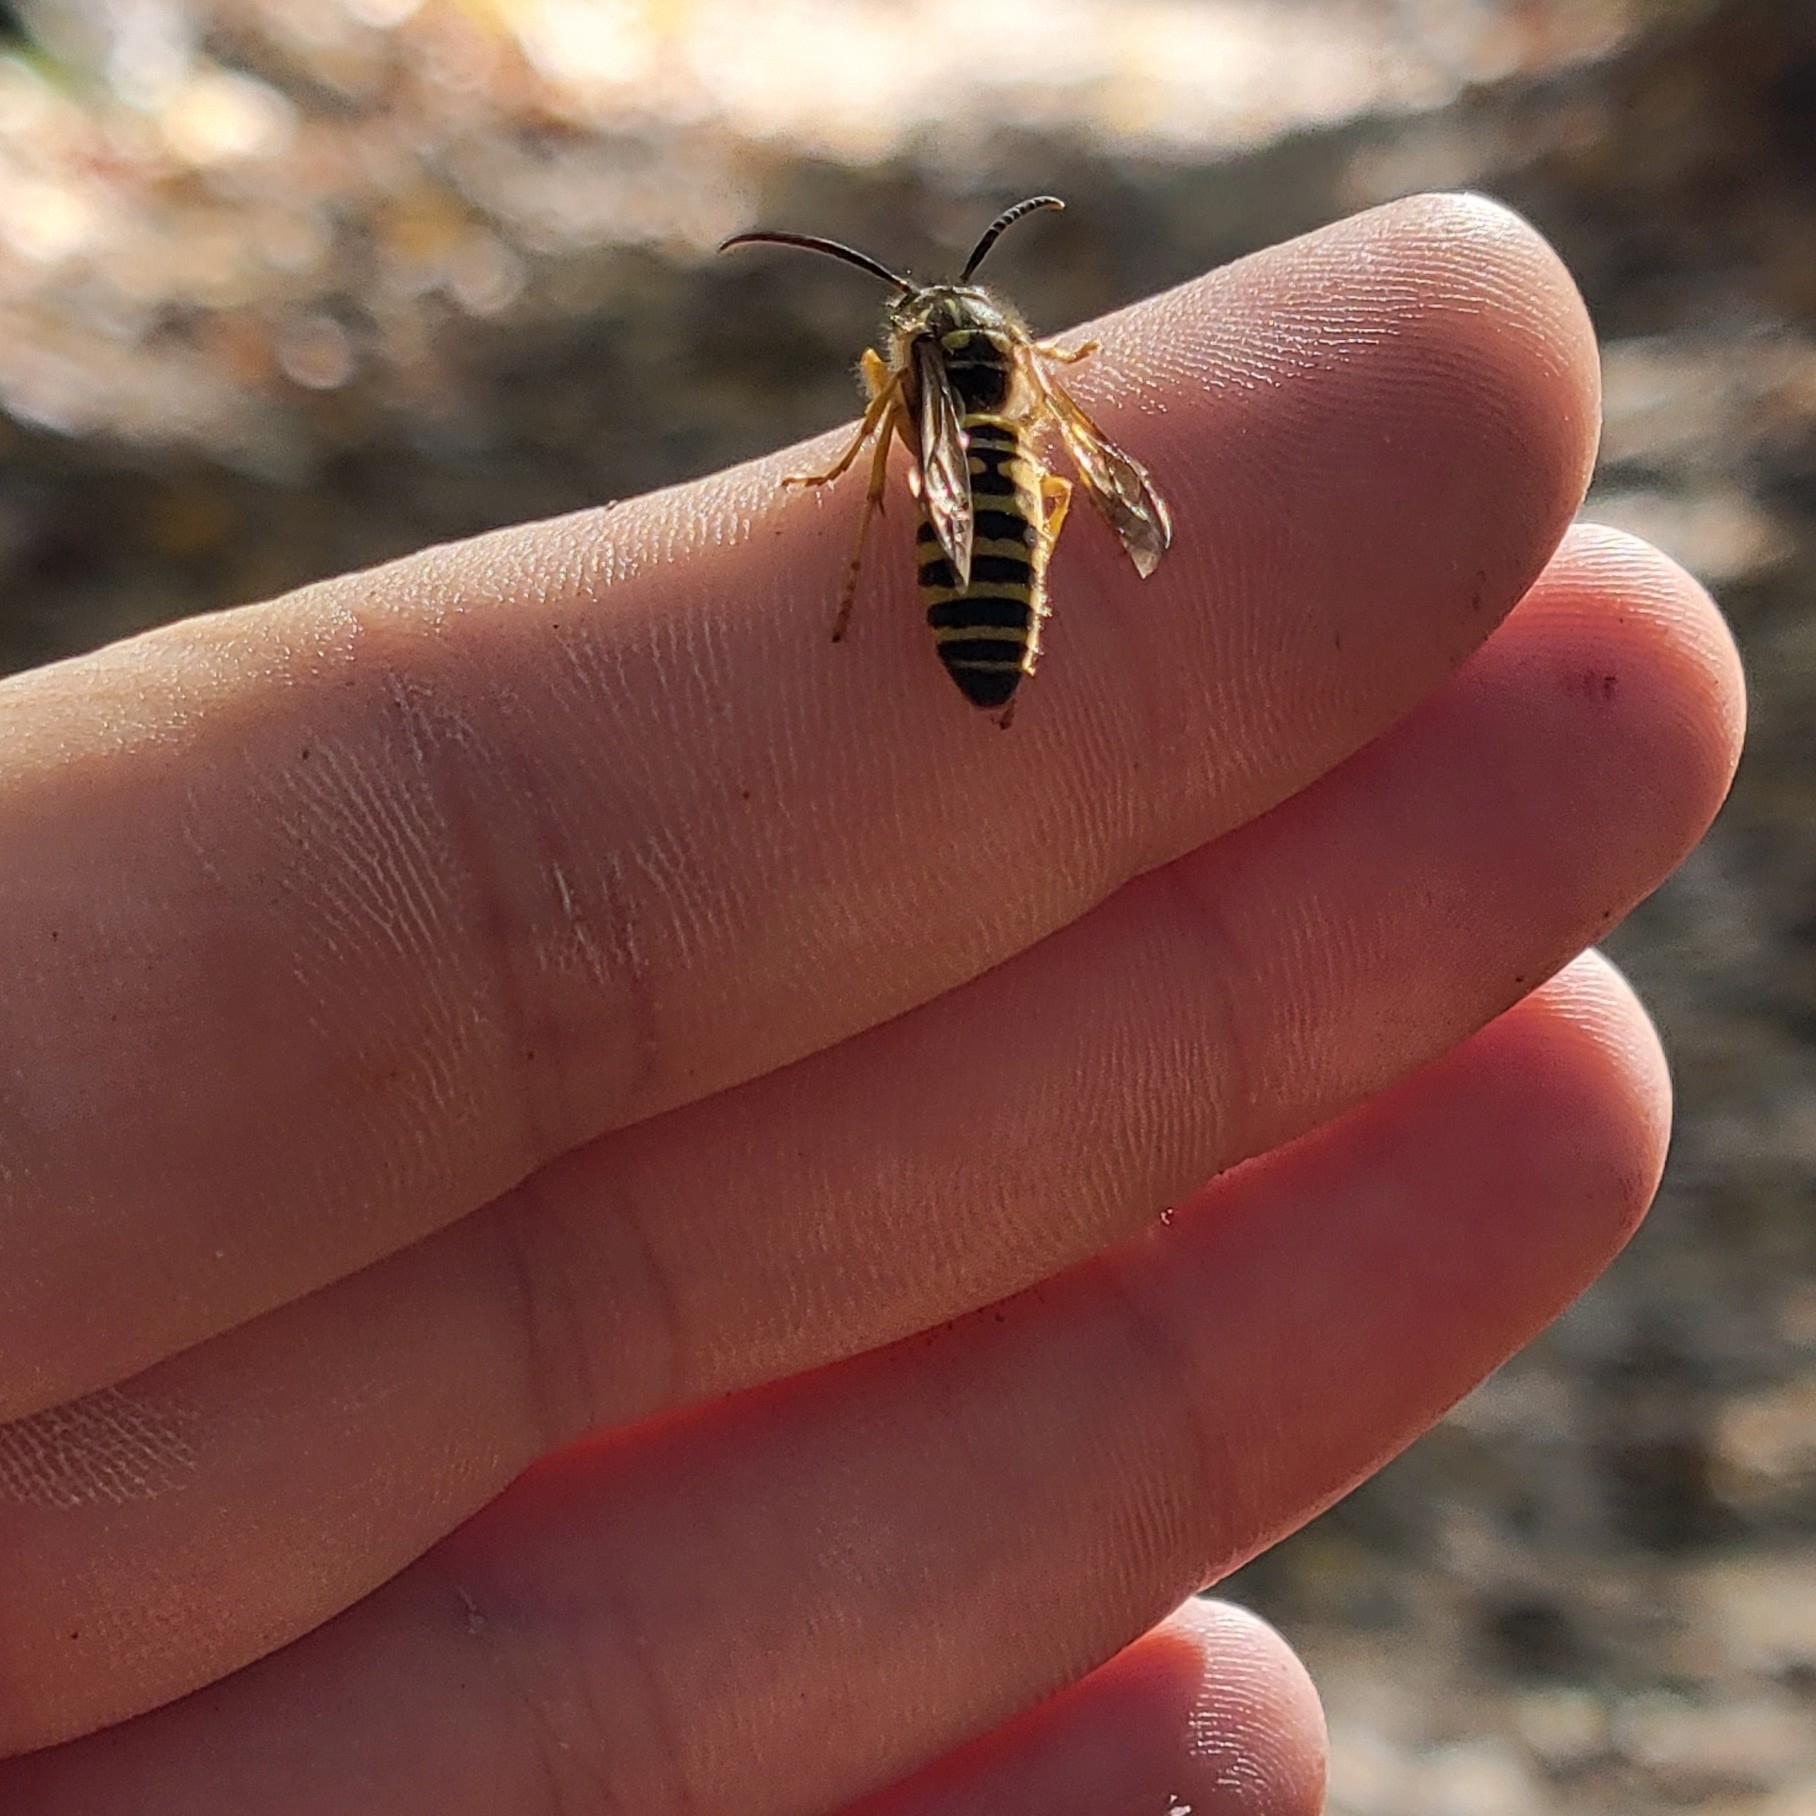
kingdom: Animalia
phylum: Arthropoda
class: Insecta
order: Hymenoptera
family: Vespidae
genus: Vespula
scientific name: Vespula squamosa
